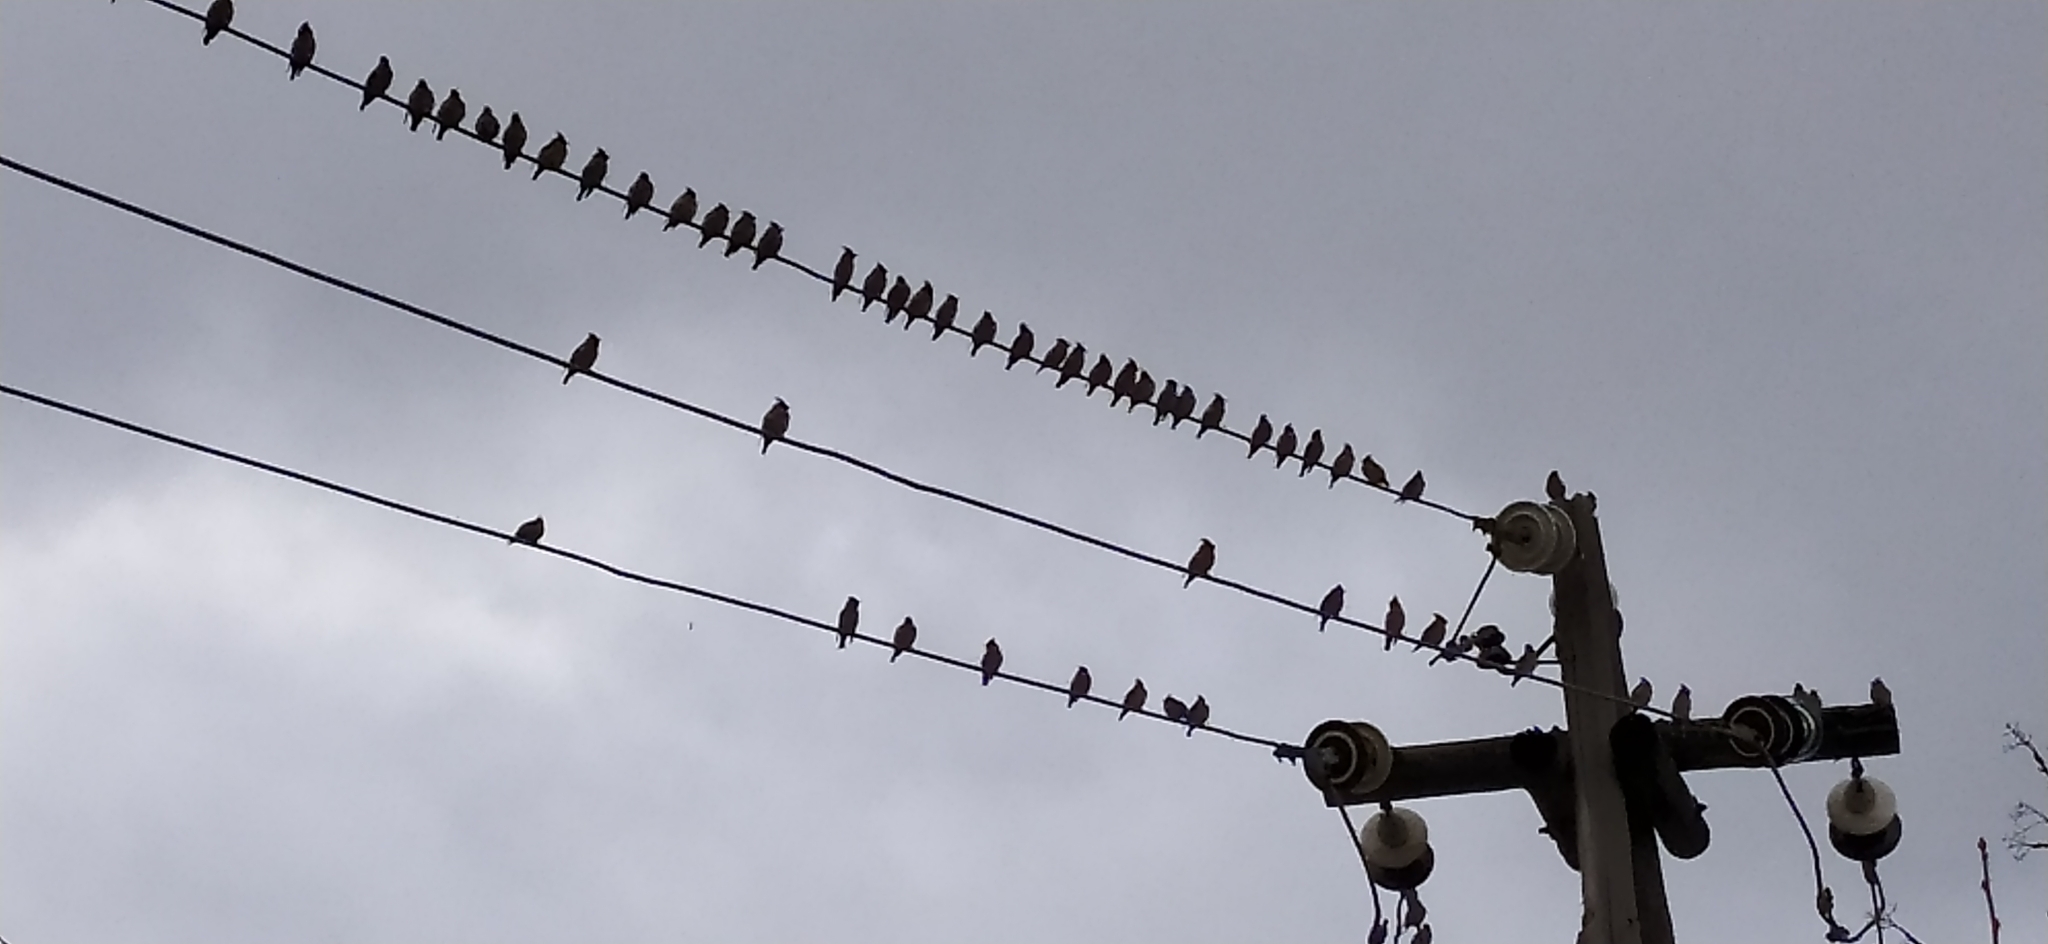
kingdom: Animalia
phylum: Chordata
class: Aves
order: Passeriformes
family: Bombycillidae
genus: Bombycilla
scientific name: Bombycilla garrulus
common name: Bohemian waxwing
